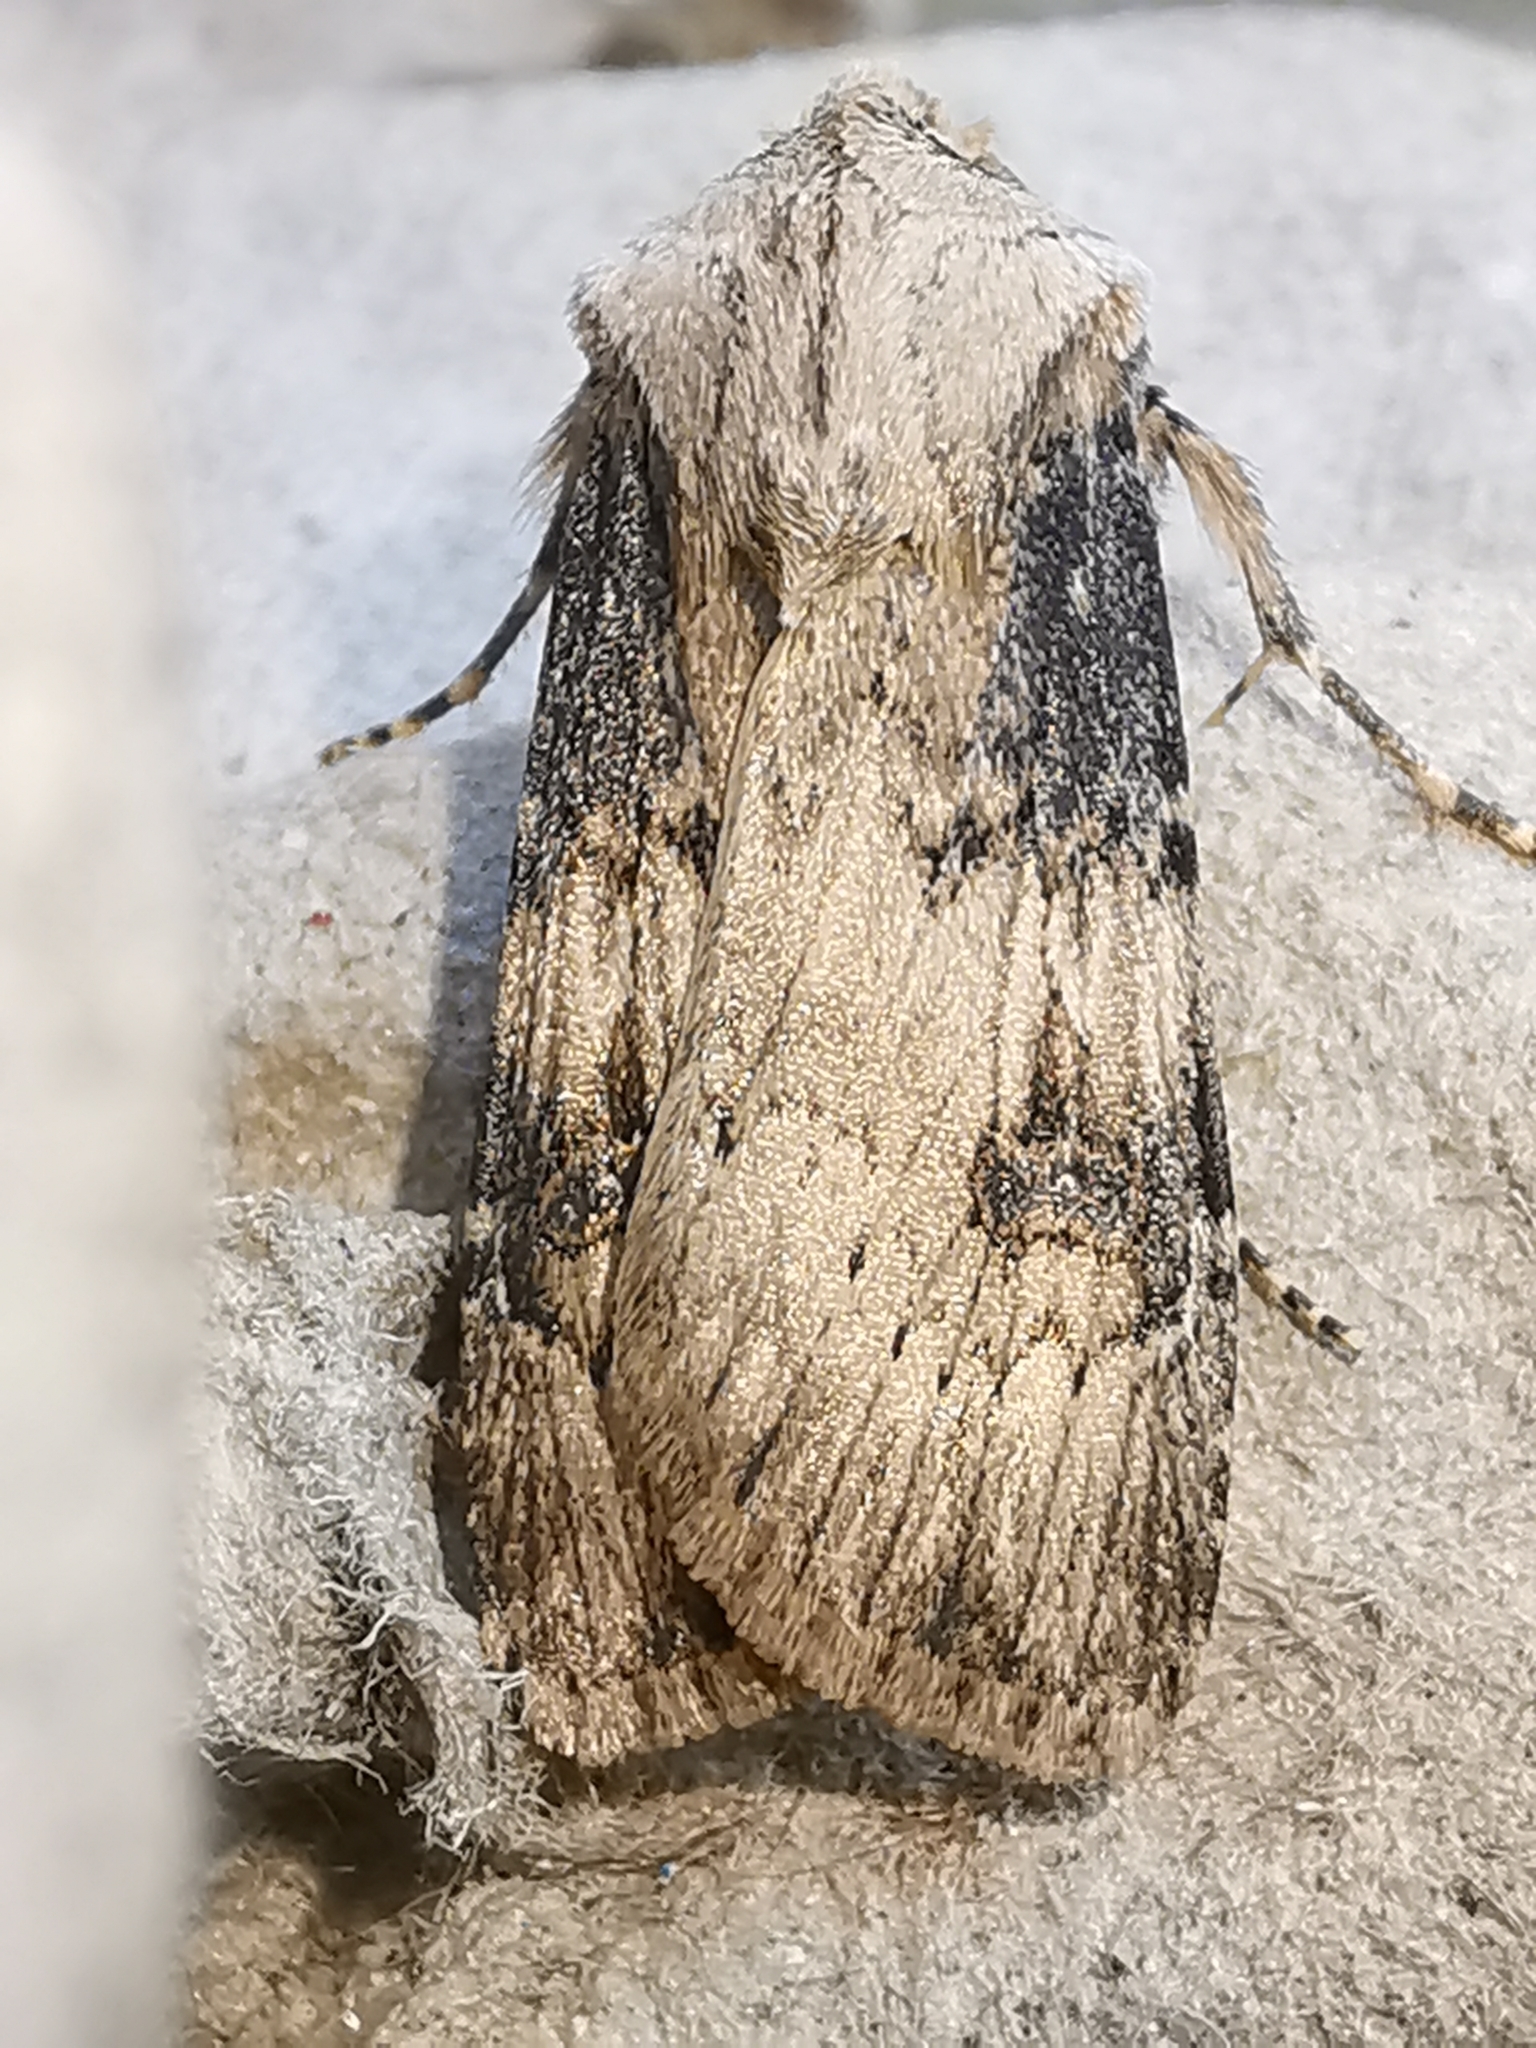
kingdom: Animalia
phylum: Arthropoda
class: Insecta
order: Lepidoptera
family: Noctuidae
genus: Agrotis
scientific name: Agrotis puta
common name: Shuttle-shaped dart
